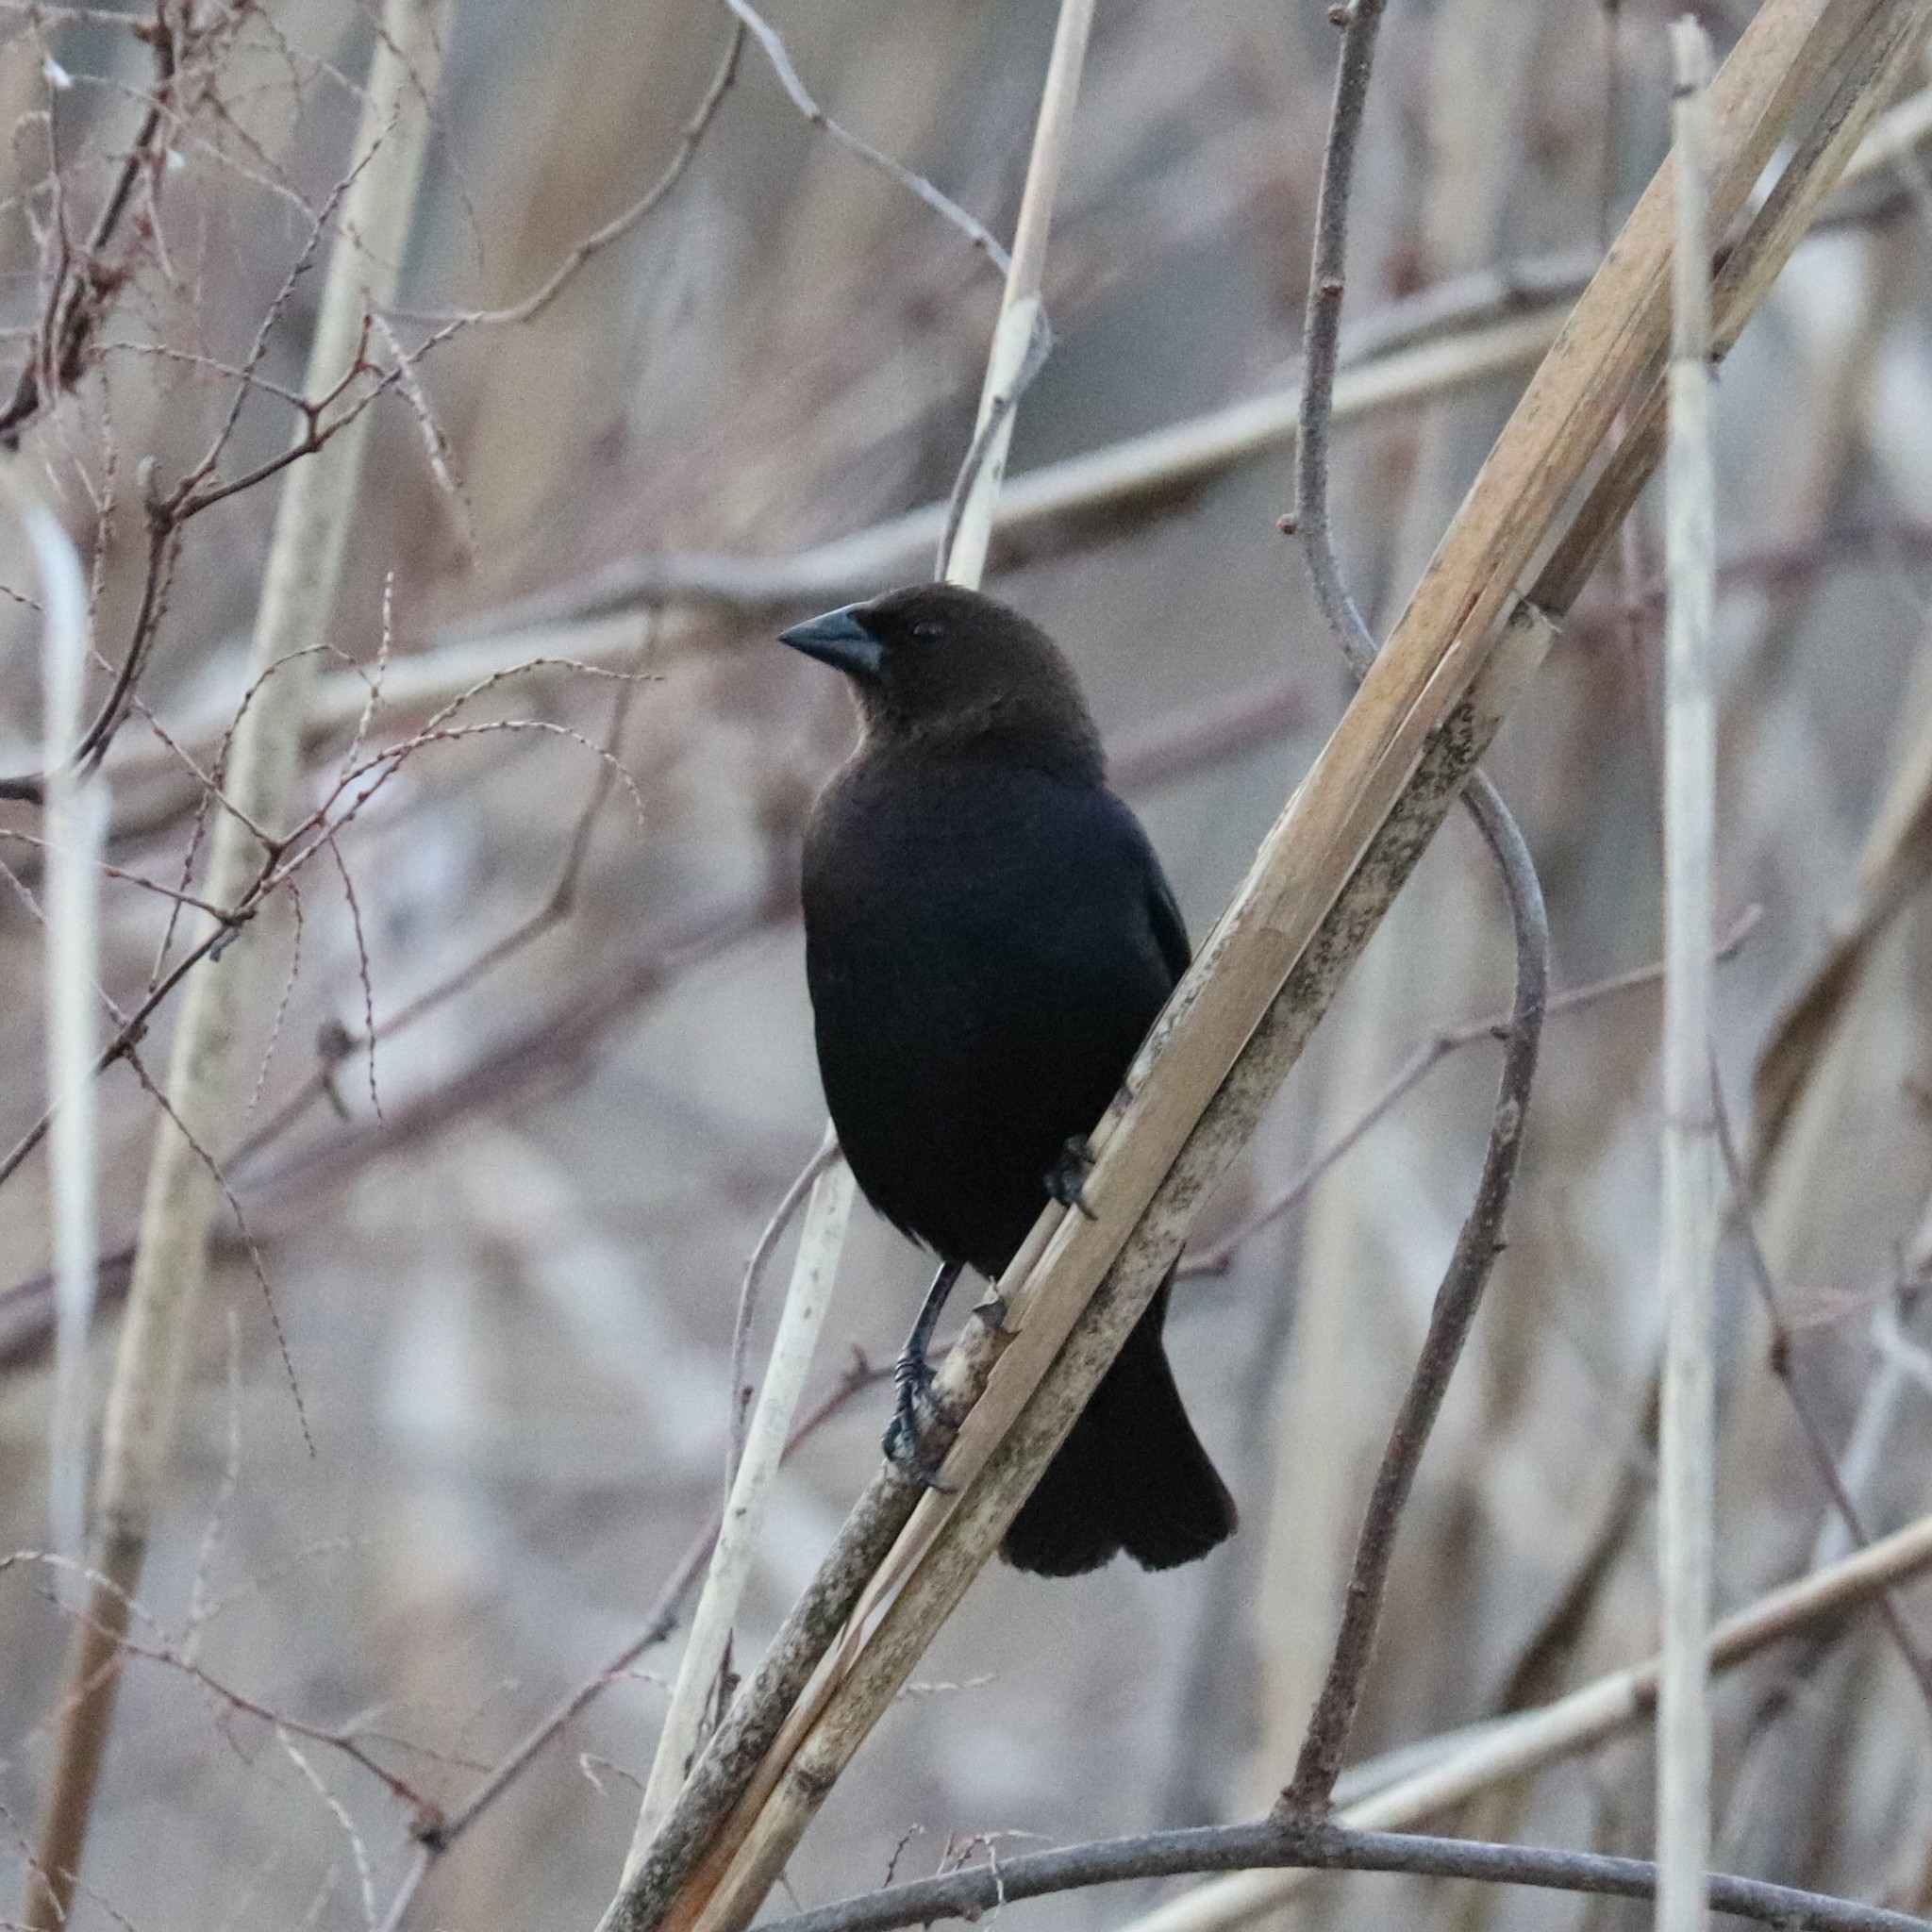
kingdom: Animalia
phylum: Chordata
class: Aves
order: Passeriformes
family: Icteridae
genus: Molothrus
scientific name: Molothrus ater
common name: Brown-headed cowbird
